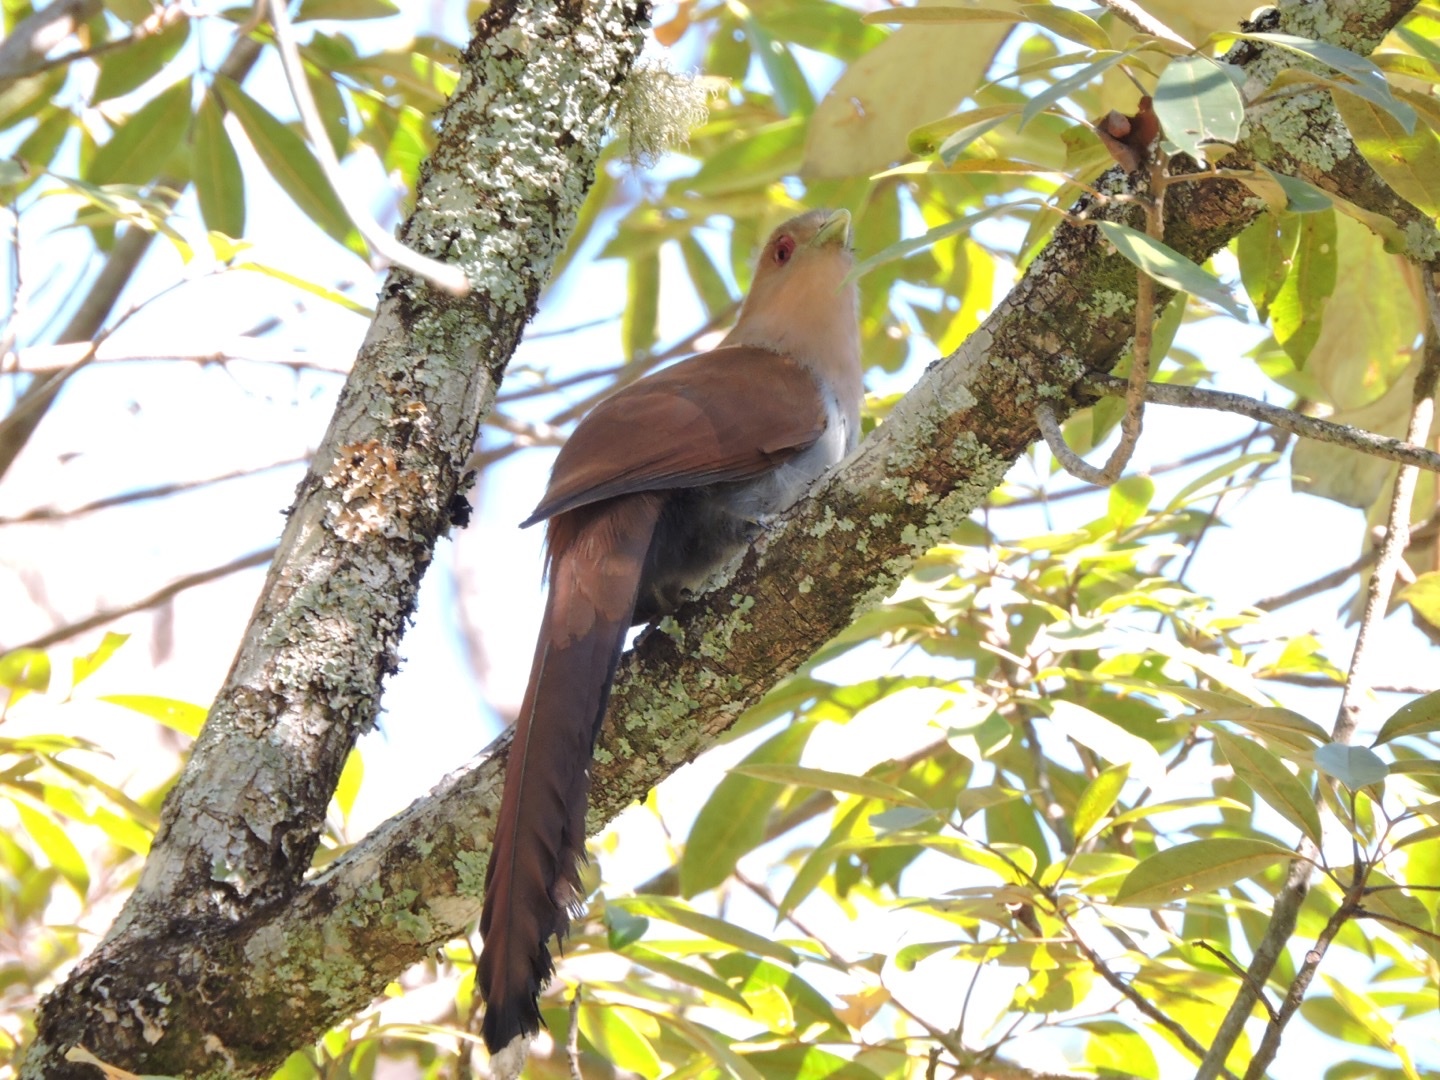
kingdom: Animalia
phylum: Chordata
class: Aves
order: Cuculiformes
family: Cuculidae
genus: Piaya
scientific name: Piaya cayana
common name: Squirrel cuckoo
